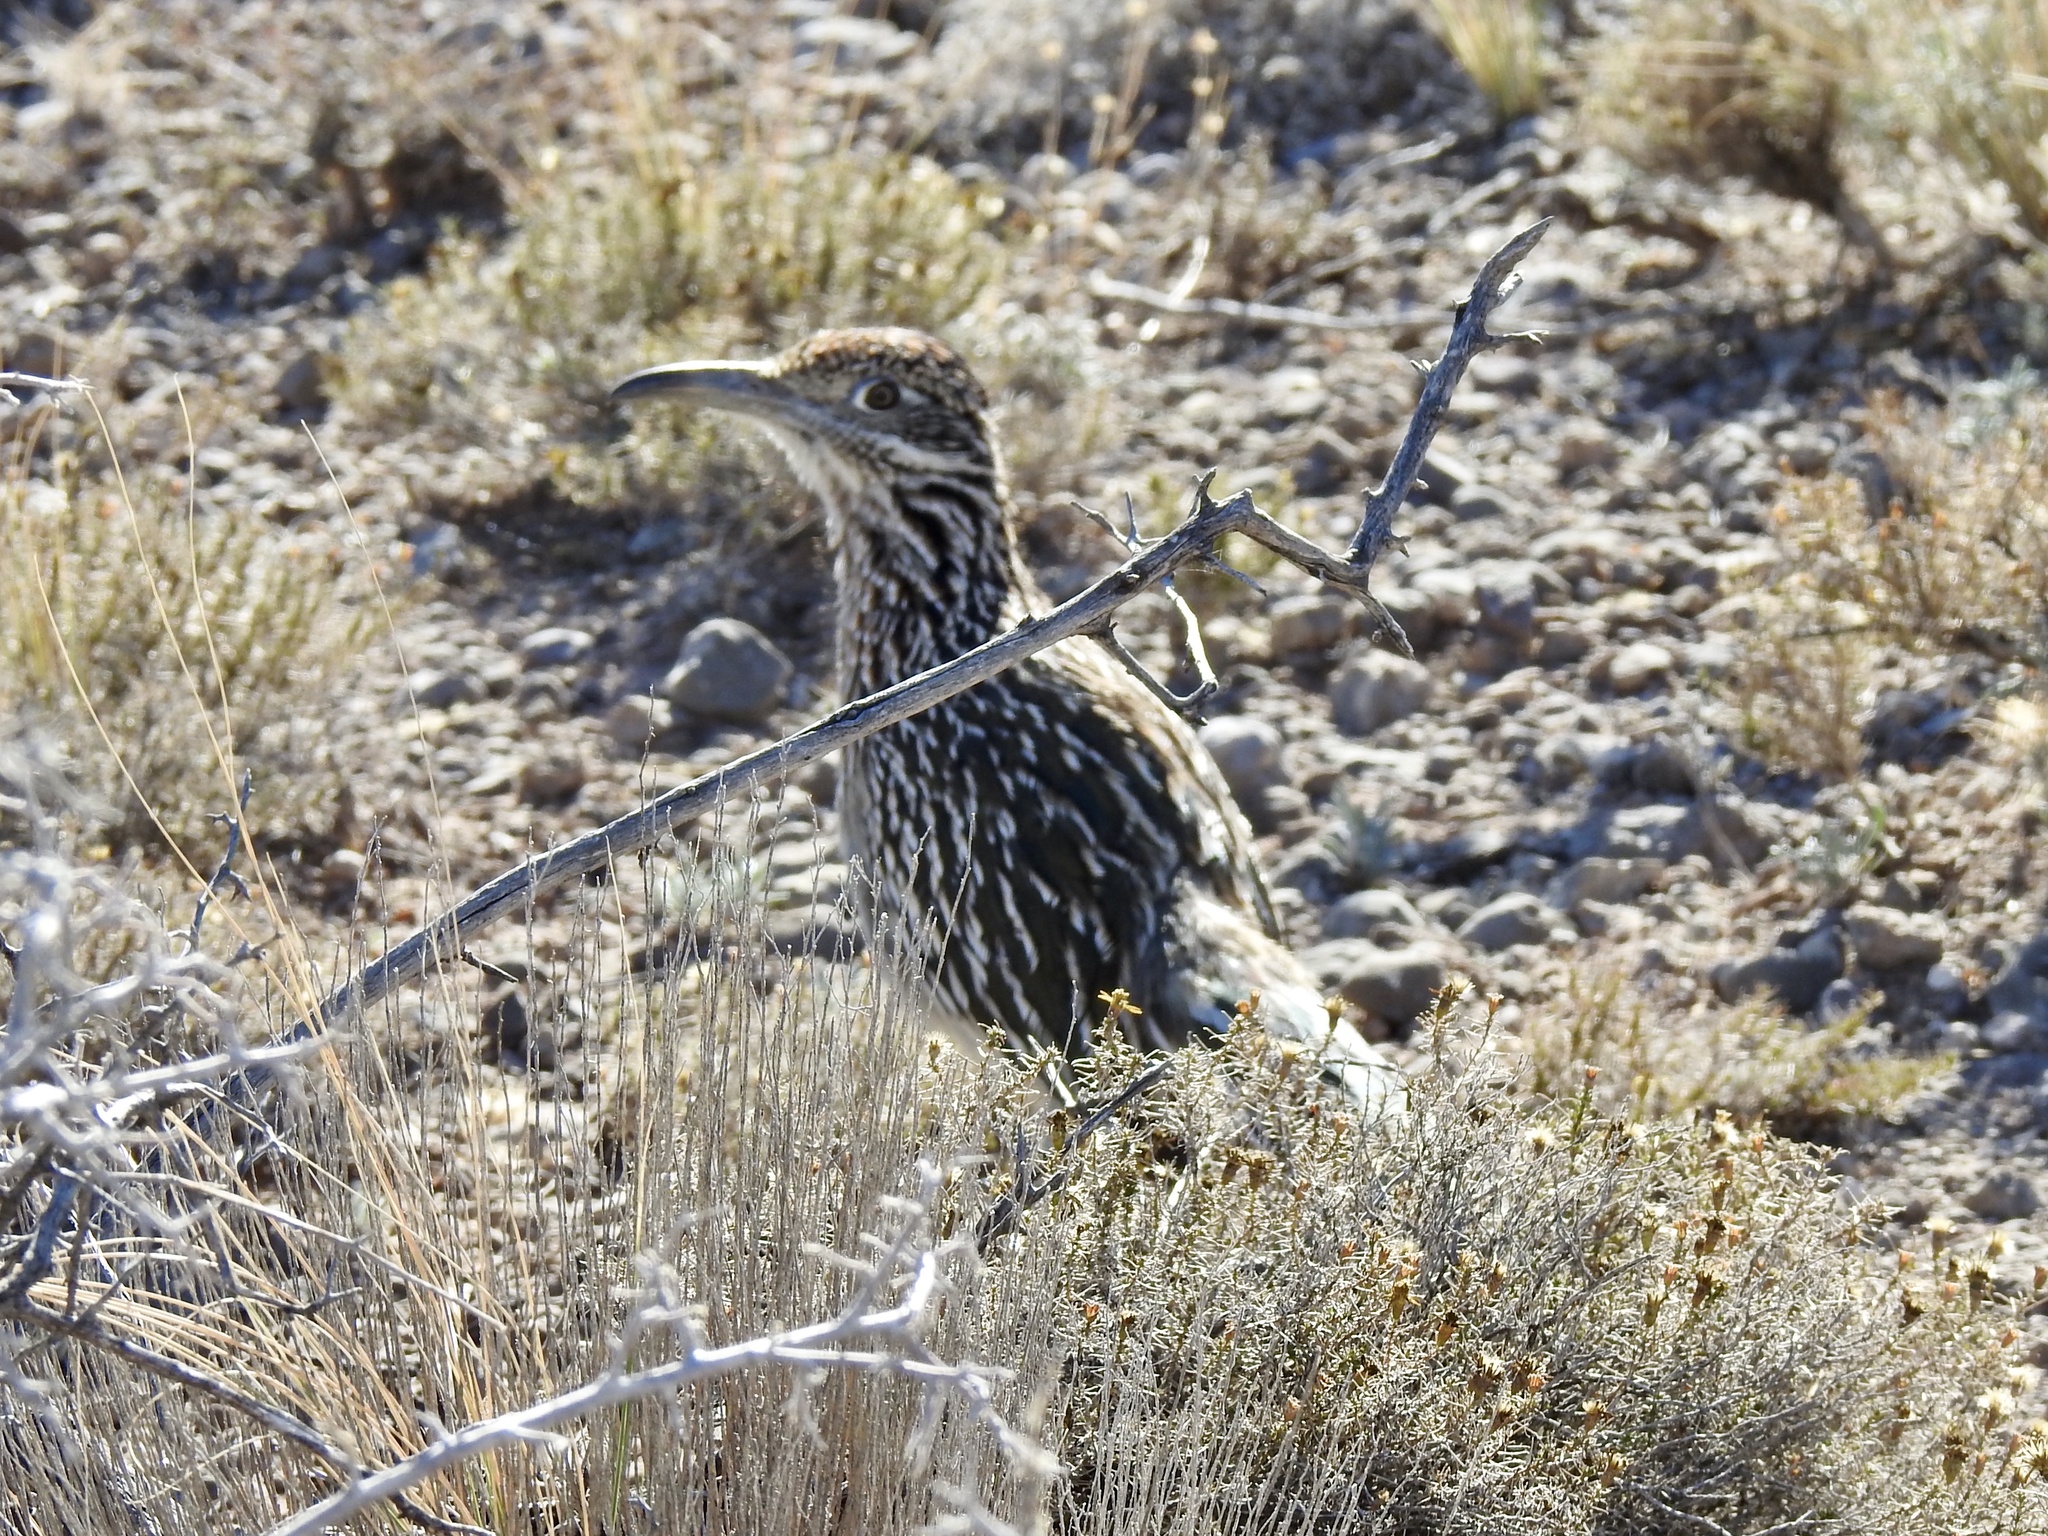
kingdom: Animalia
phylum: Chordata
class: Aves
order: Cuculiformes
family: Cuculidae
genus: Geococcyx
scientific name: Geococcyx californianus
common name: Greater roadrunner
